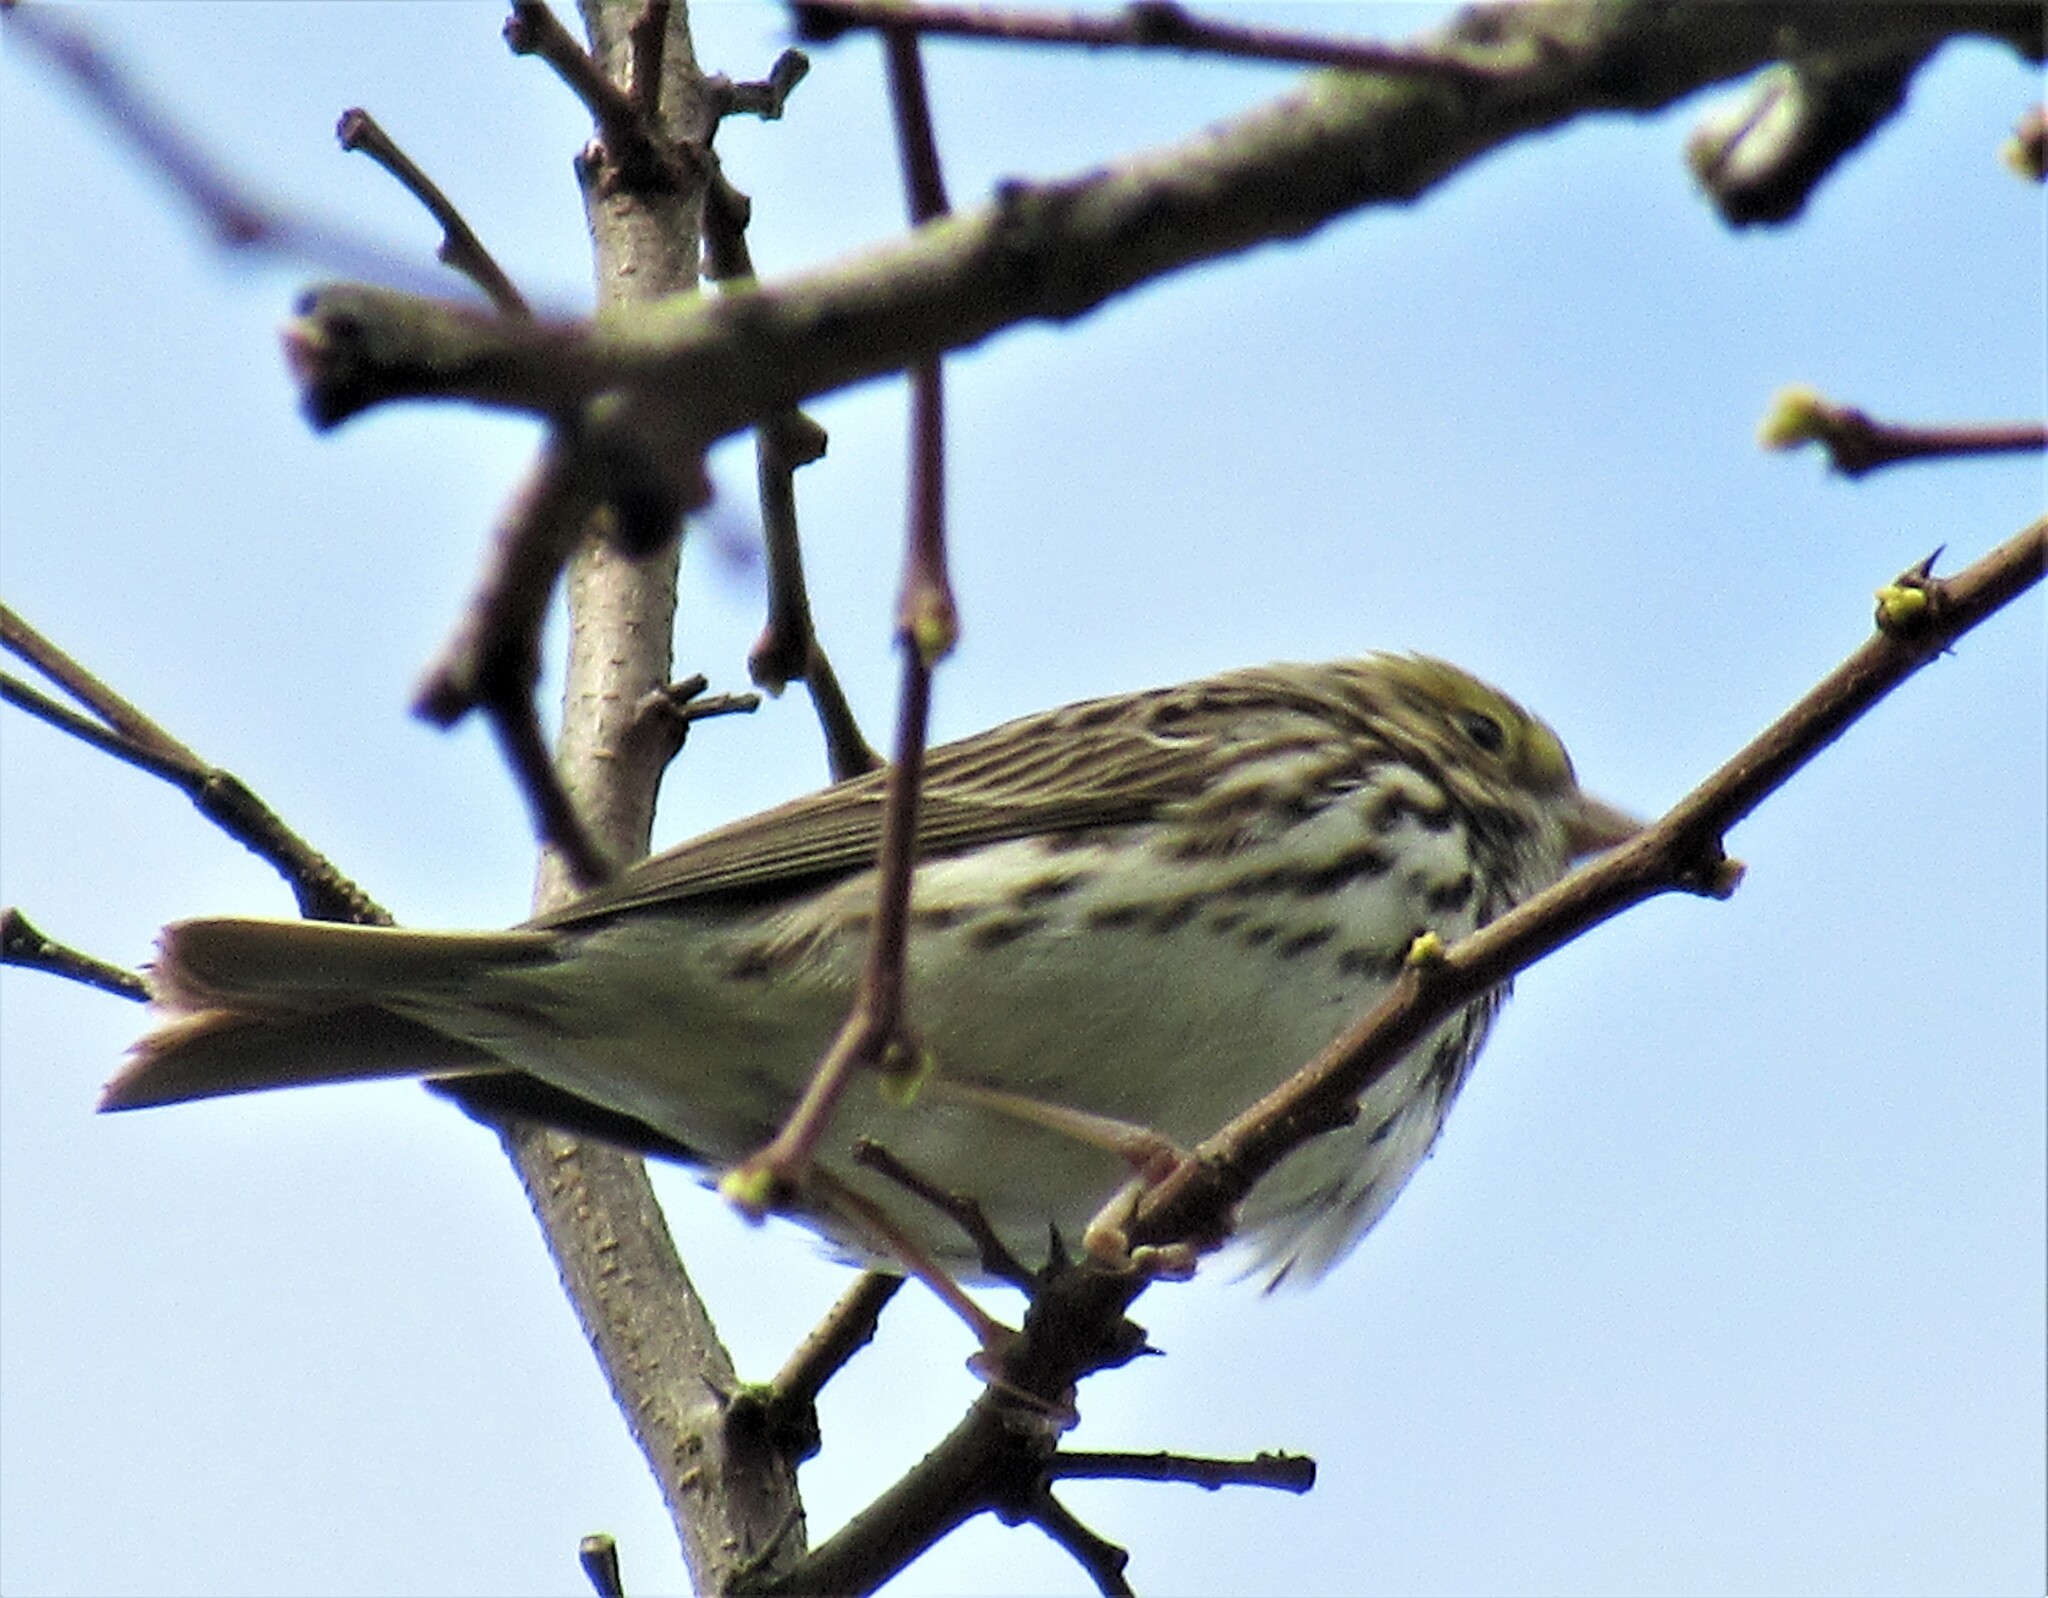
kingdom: Animalia
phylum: Chordata
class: Aves
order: Passeriformes
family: Passerellidae
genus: Passerculus
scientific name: Passerculus sandwichensis
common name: Savannah sparrow
